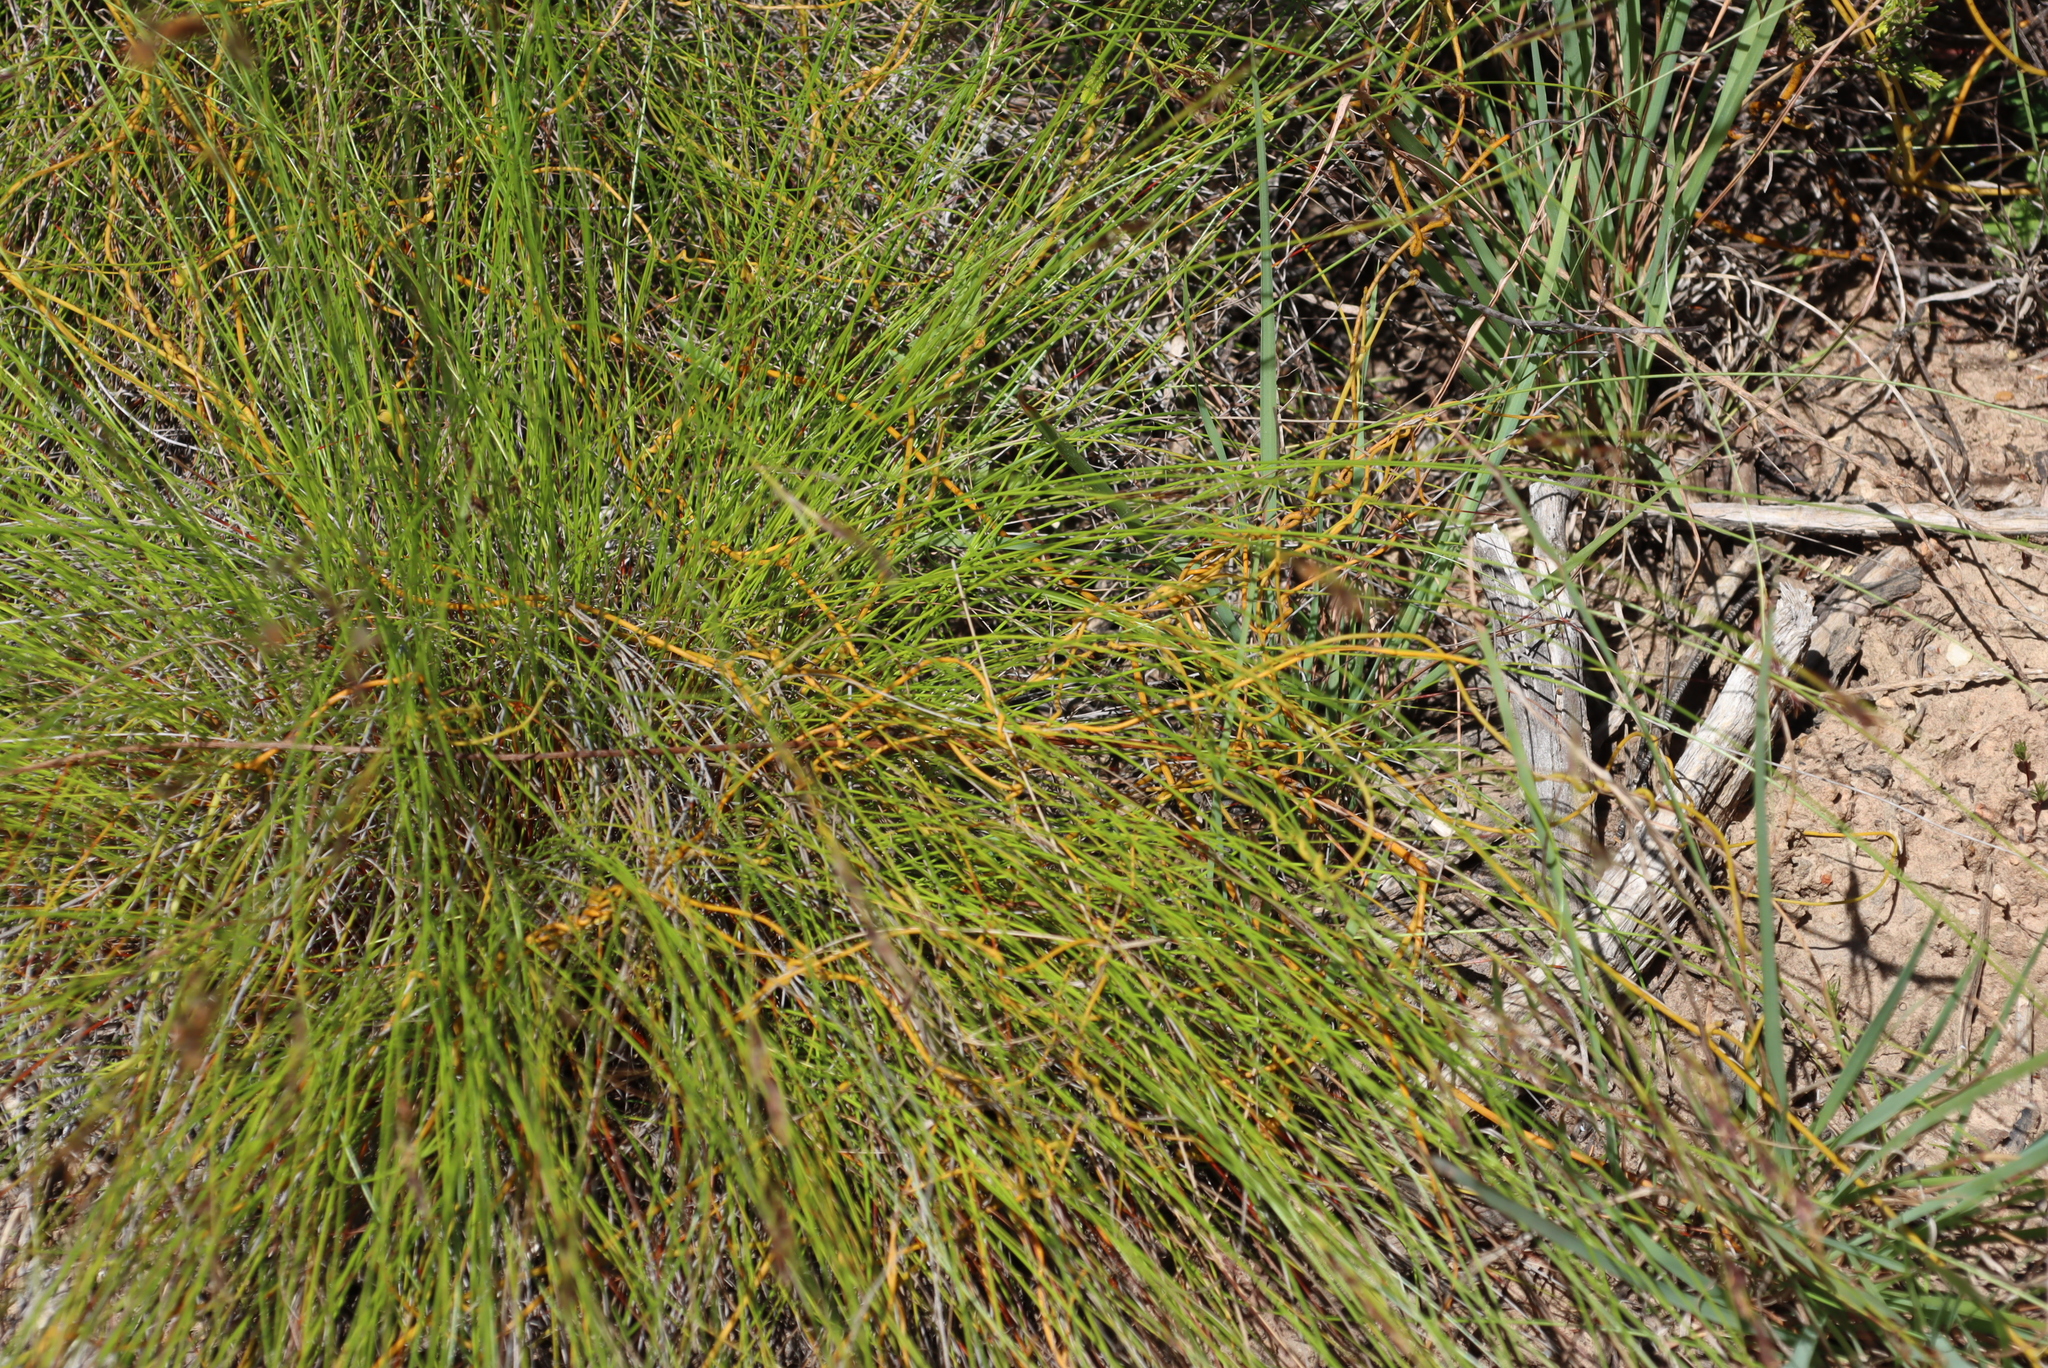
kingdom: Plantae
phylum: Tracheophyta
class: Magnoliopsida
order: Laurales
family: Lauraceae
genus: Cassytha
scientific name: Cassytha ciliolata
